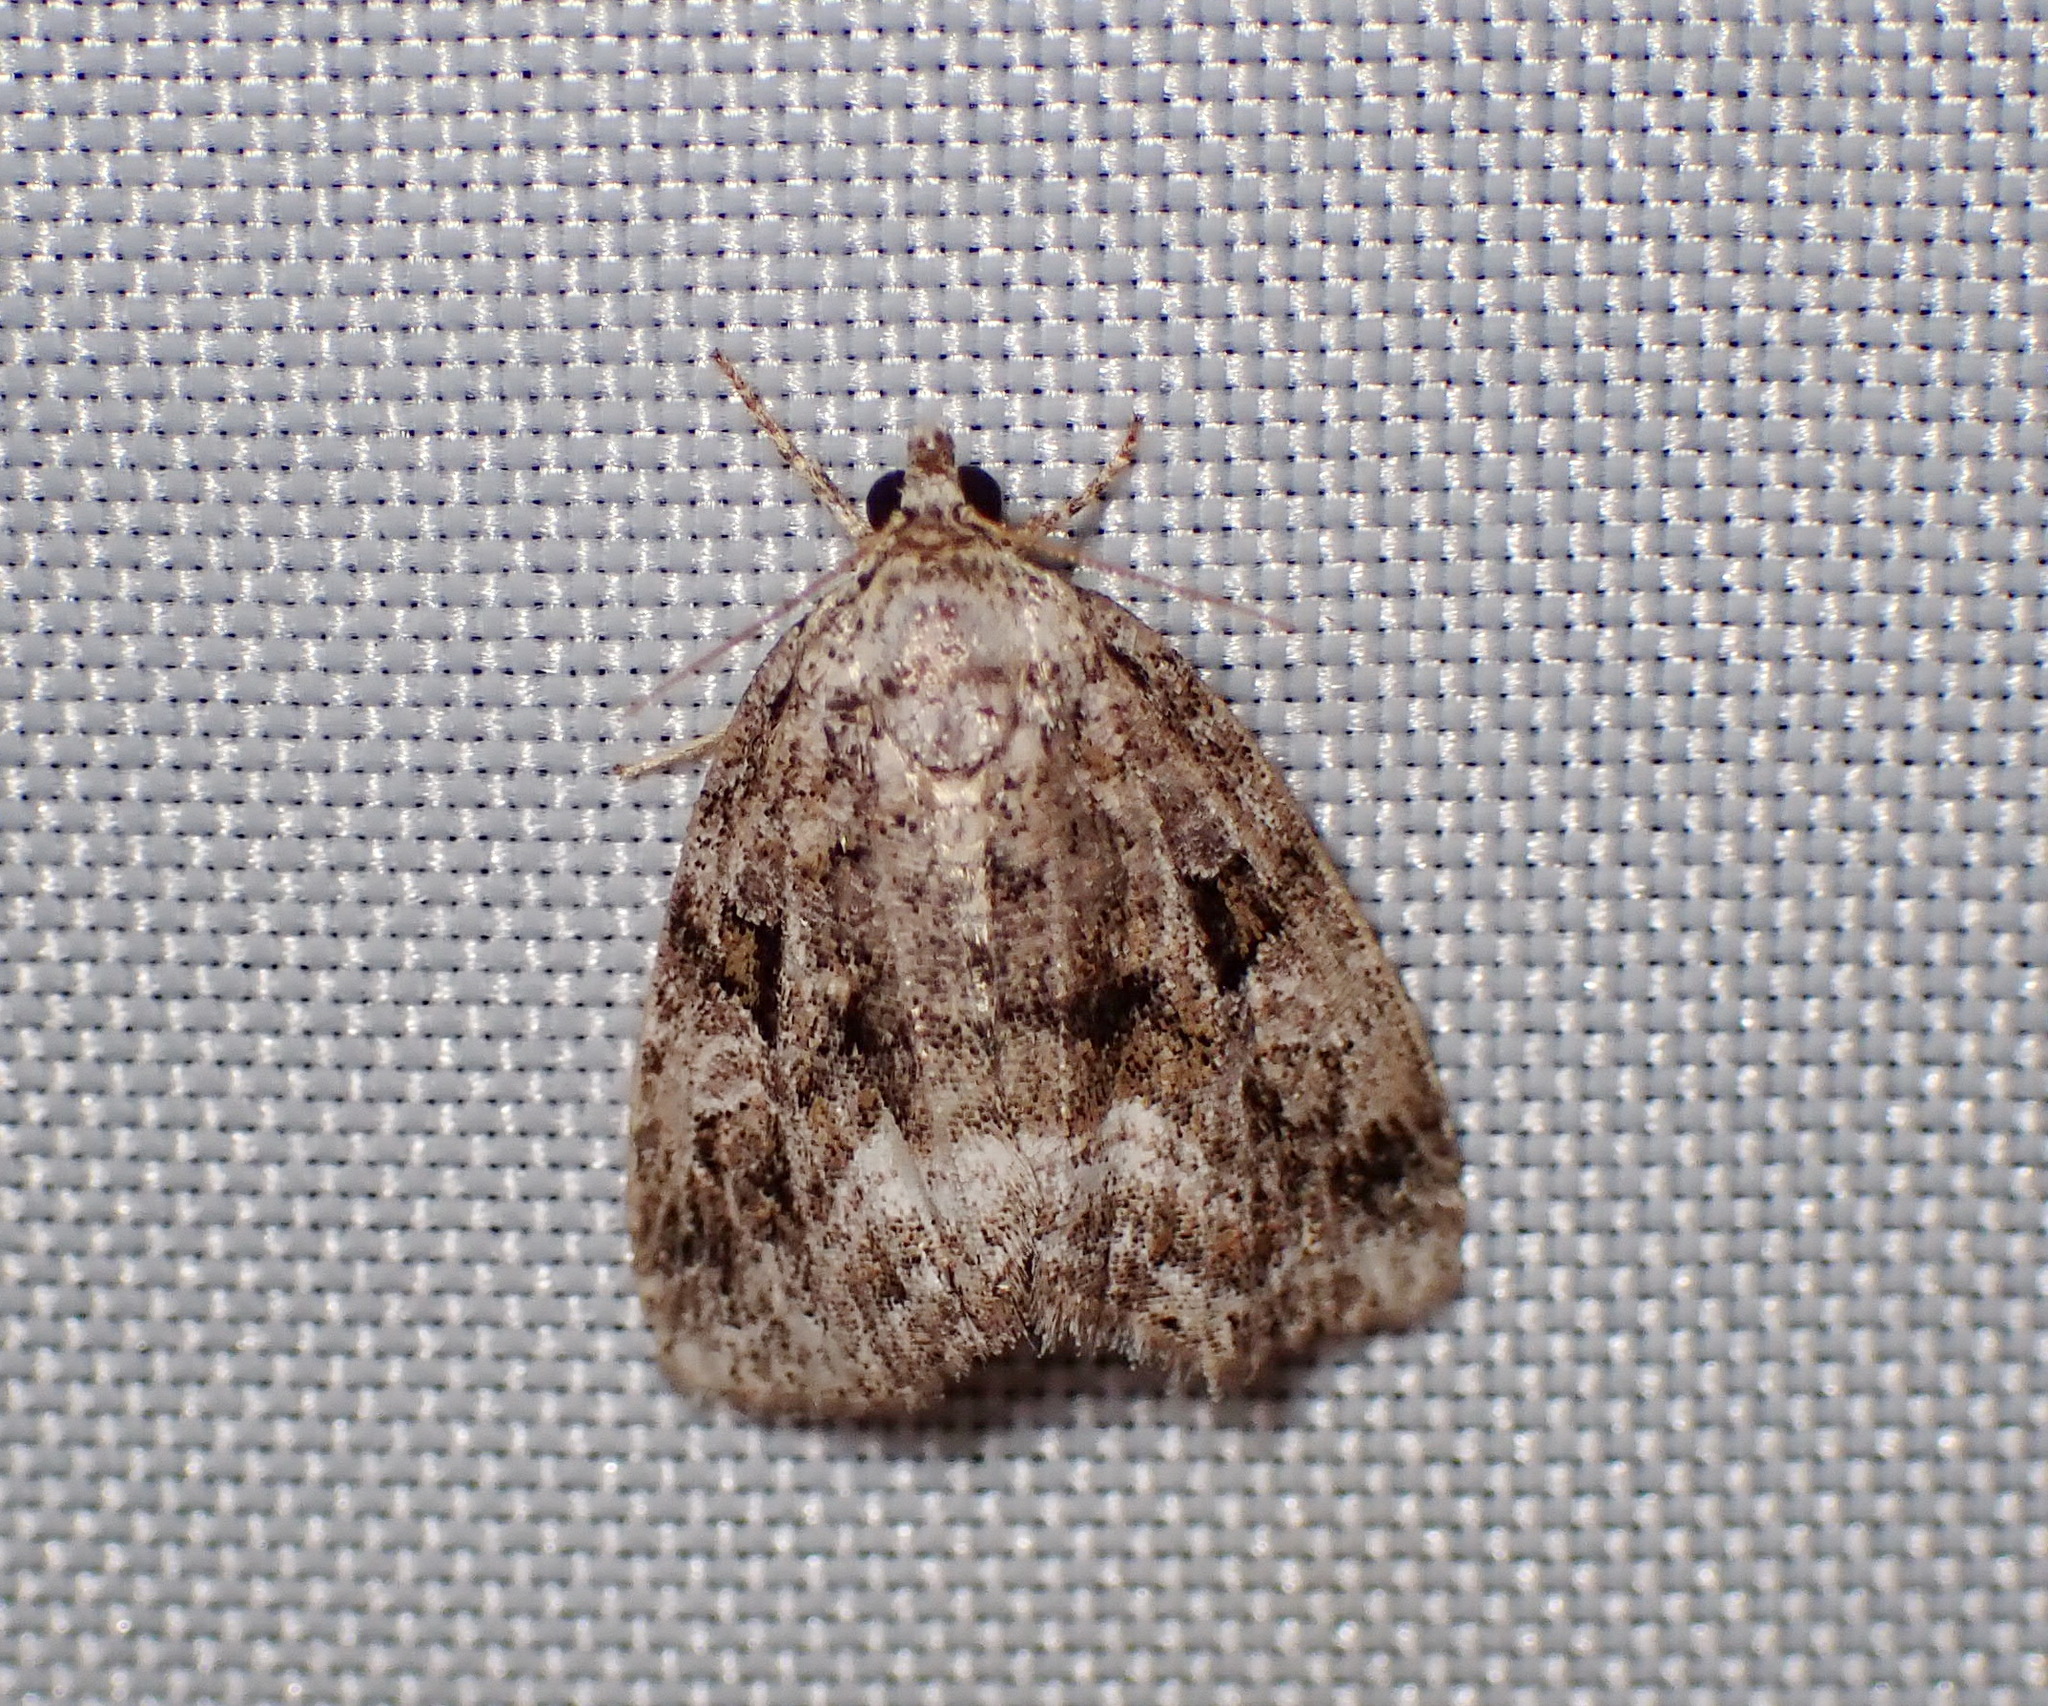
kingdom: Animalia
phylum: Arthropoda
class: Insecta
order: Lepidoptera
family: Noctuidae
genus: Protodeltote
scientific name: Protodeltote muscosula
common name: Large mossy glyph
